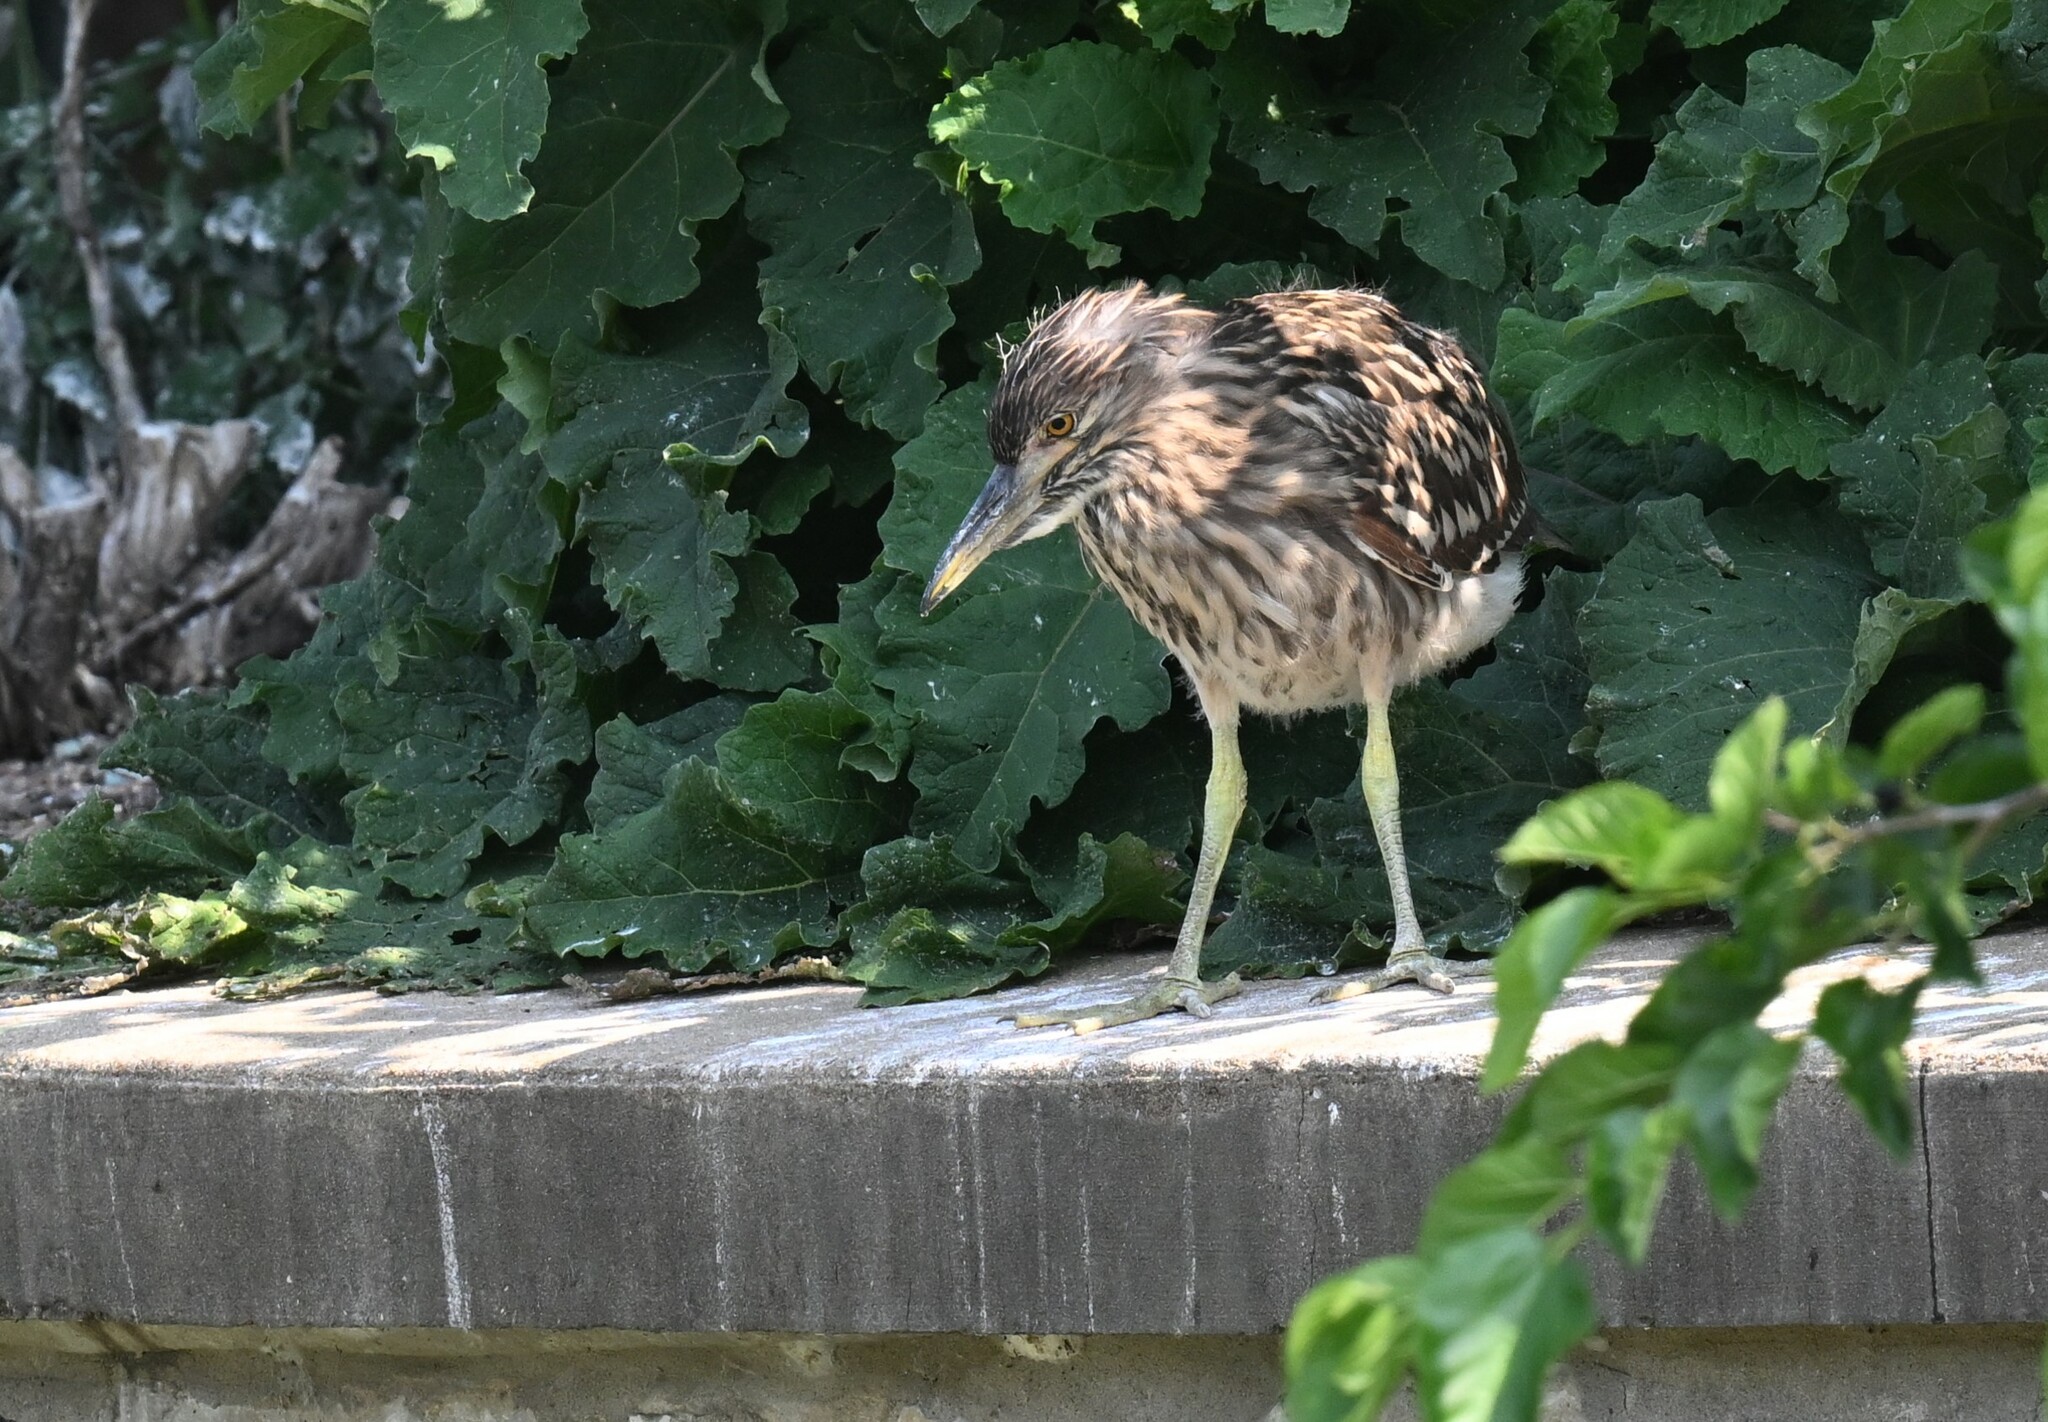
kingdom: Animalia
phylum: Chordata
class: Aves
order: Pelecaniformes
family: Ardeidae
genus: Nycticorax
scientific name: Nycticorax nycticorax
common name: Black-crowned night heron
